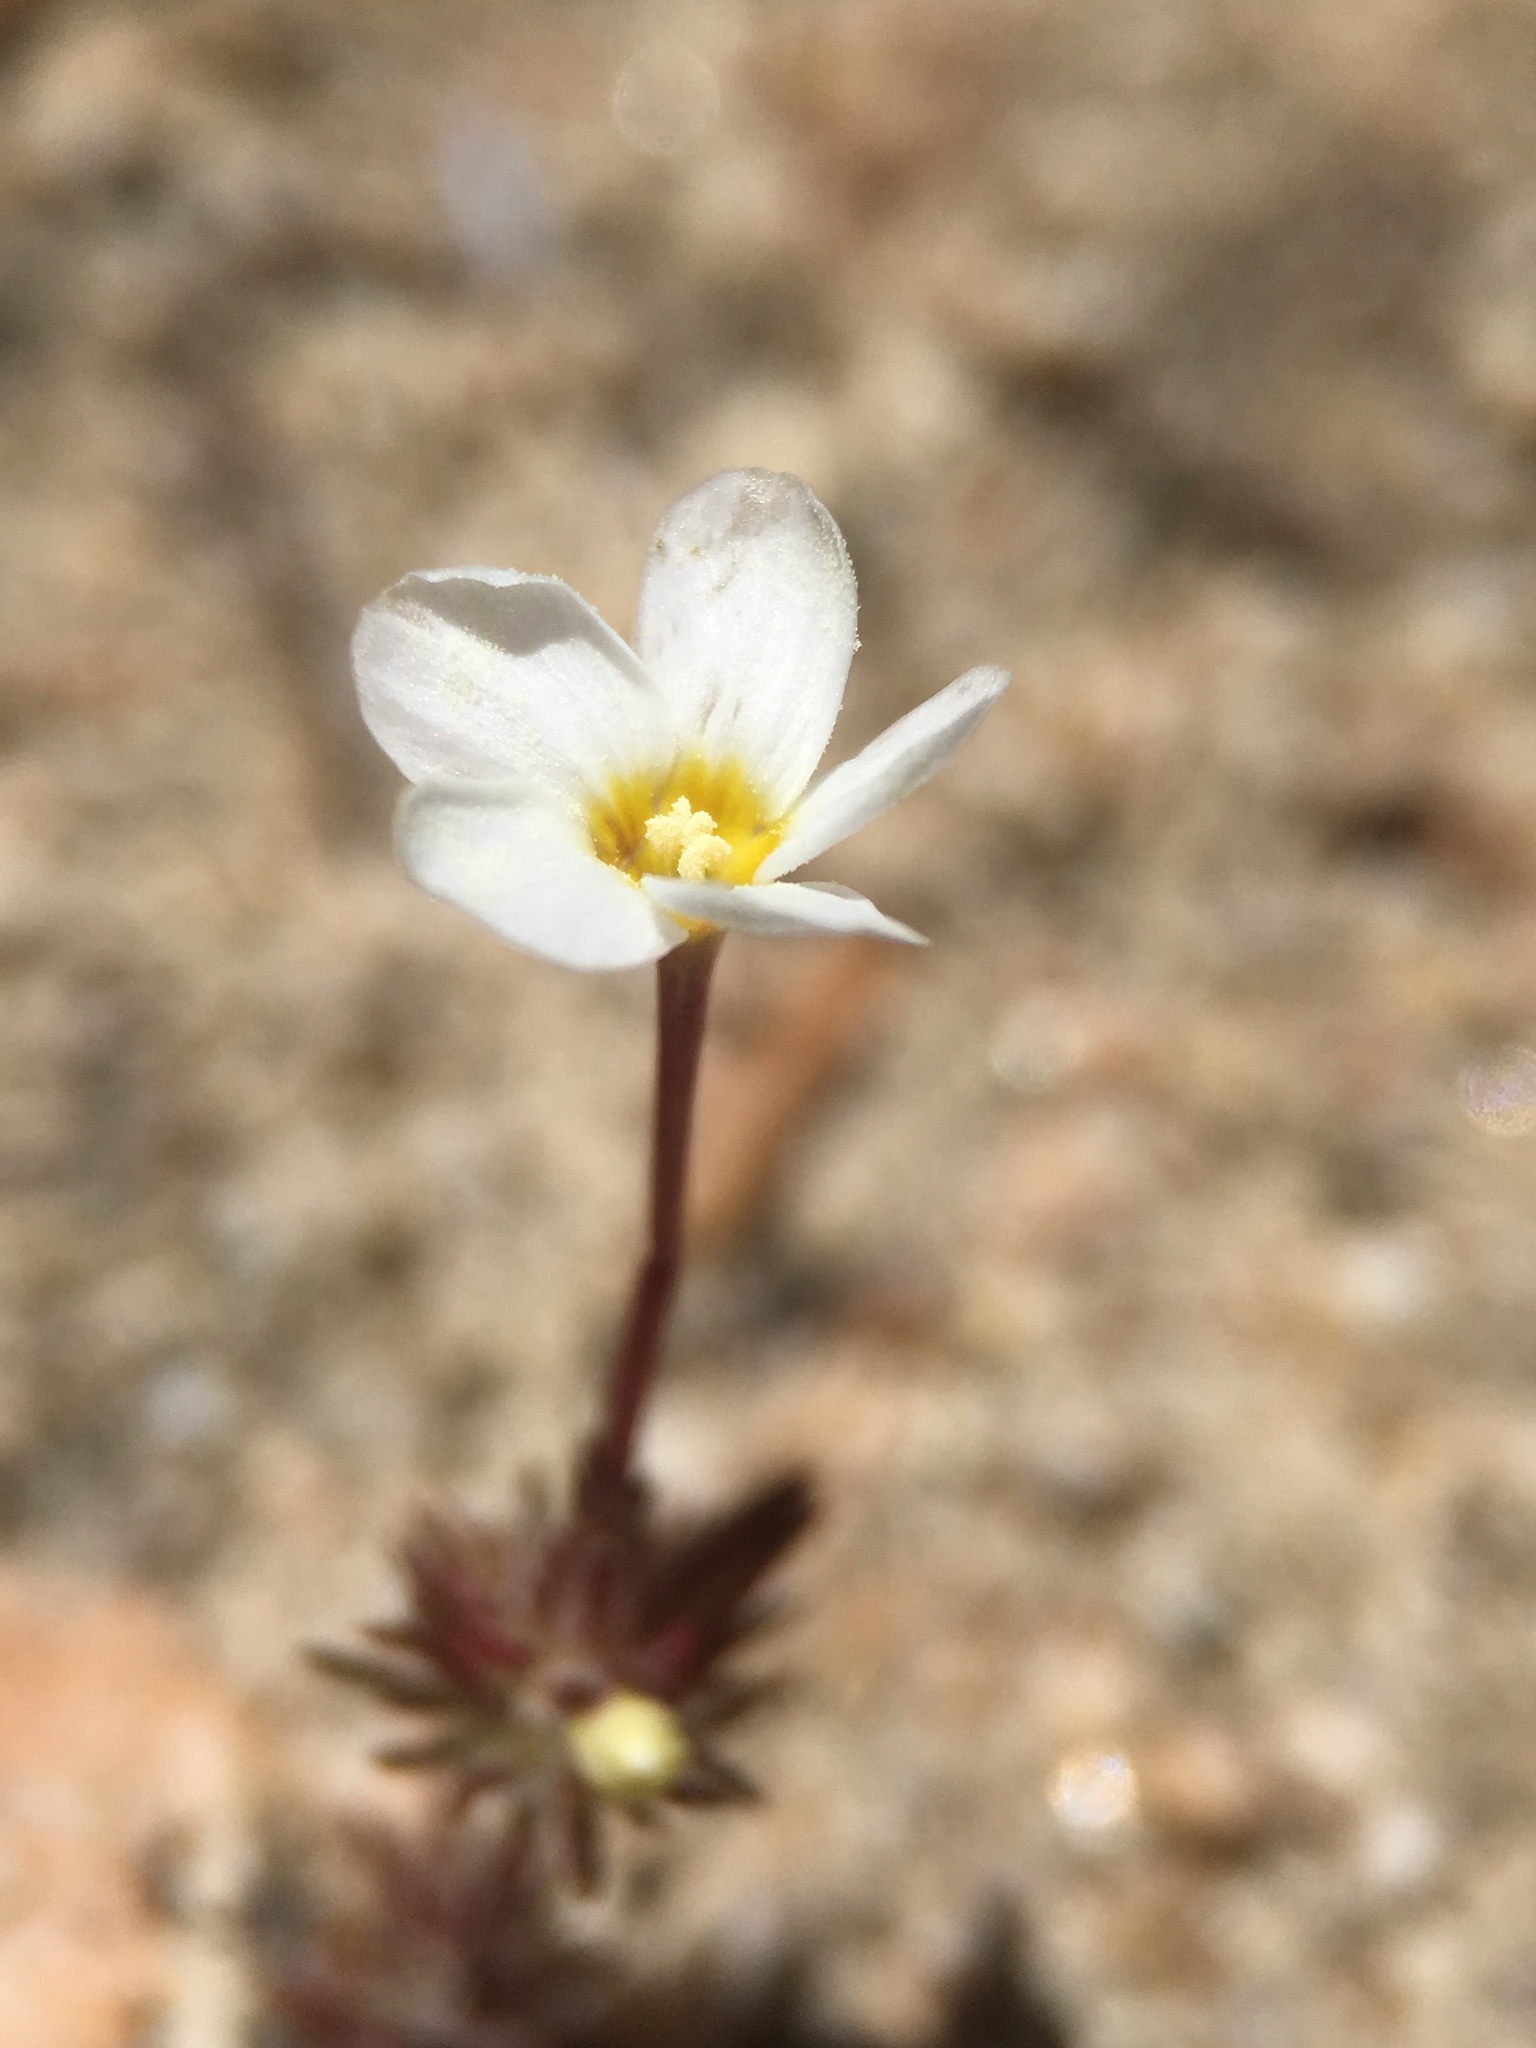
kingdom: Plantae
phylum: Tracheophyta
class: Magnoliopsida
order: Ericales
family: Polemoniaceae
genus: Leptosiphon
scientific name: Leptosiphon breviculus
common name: Mojave linanthus
